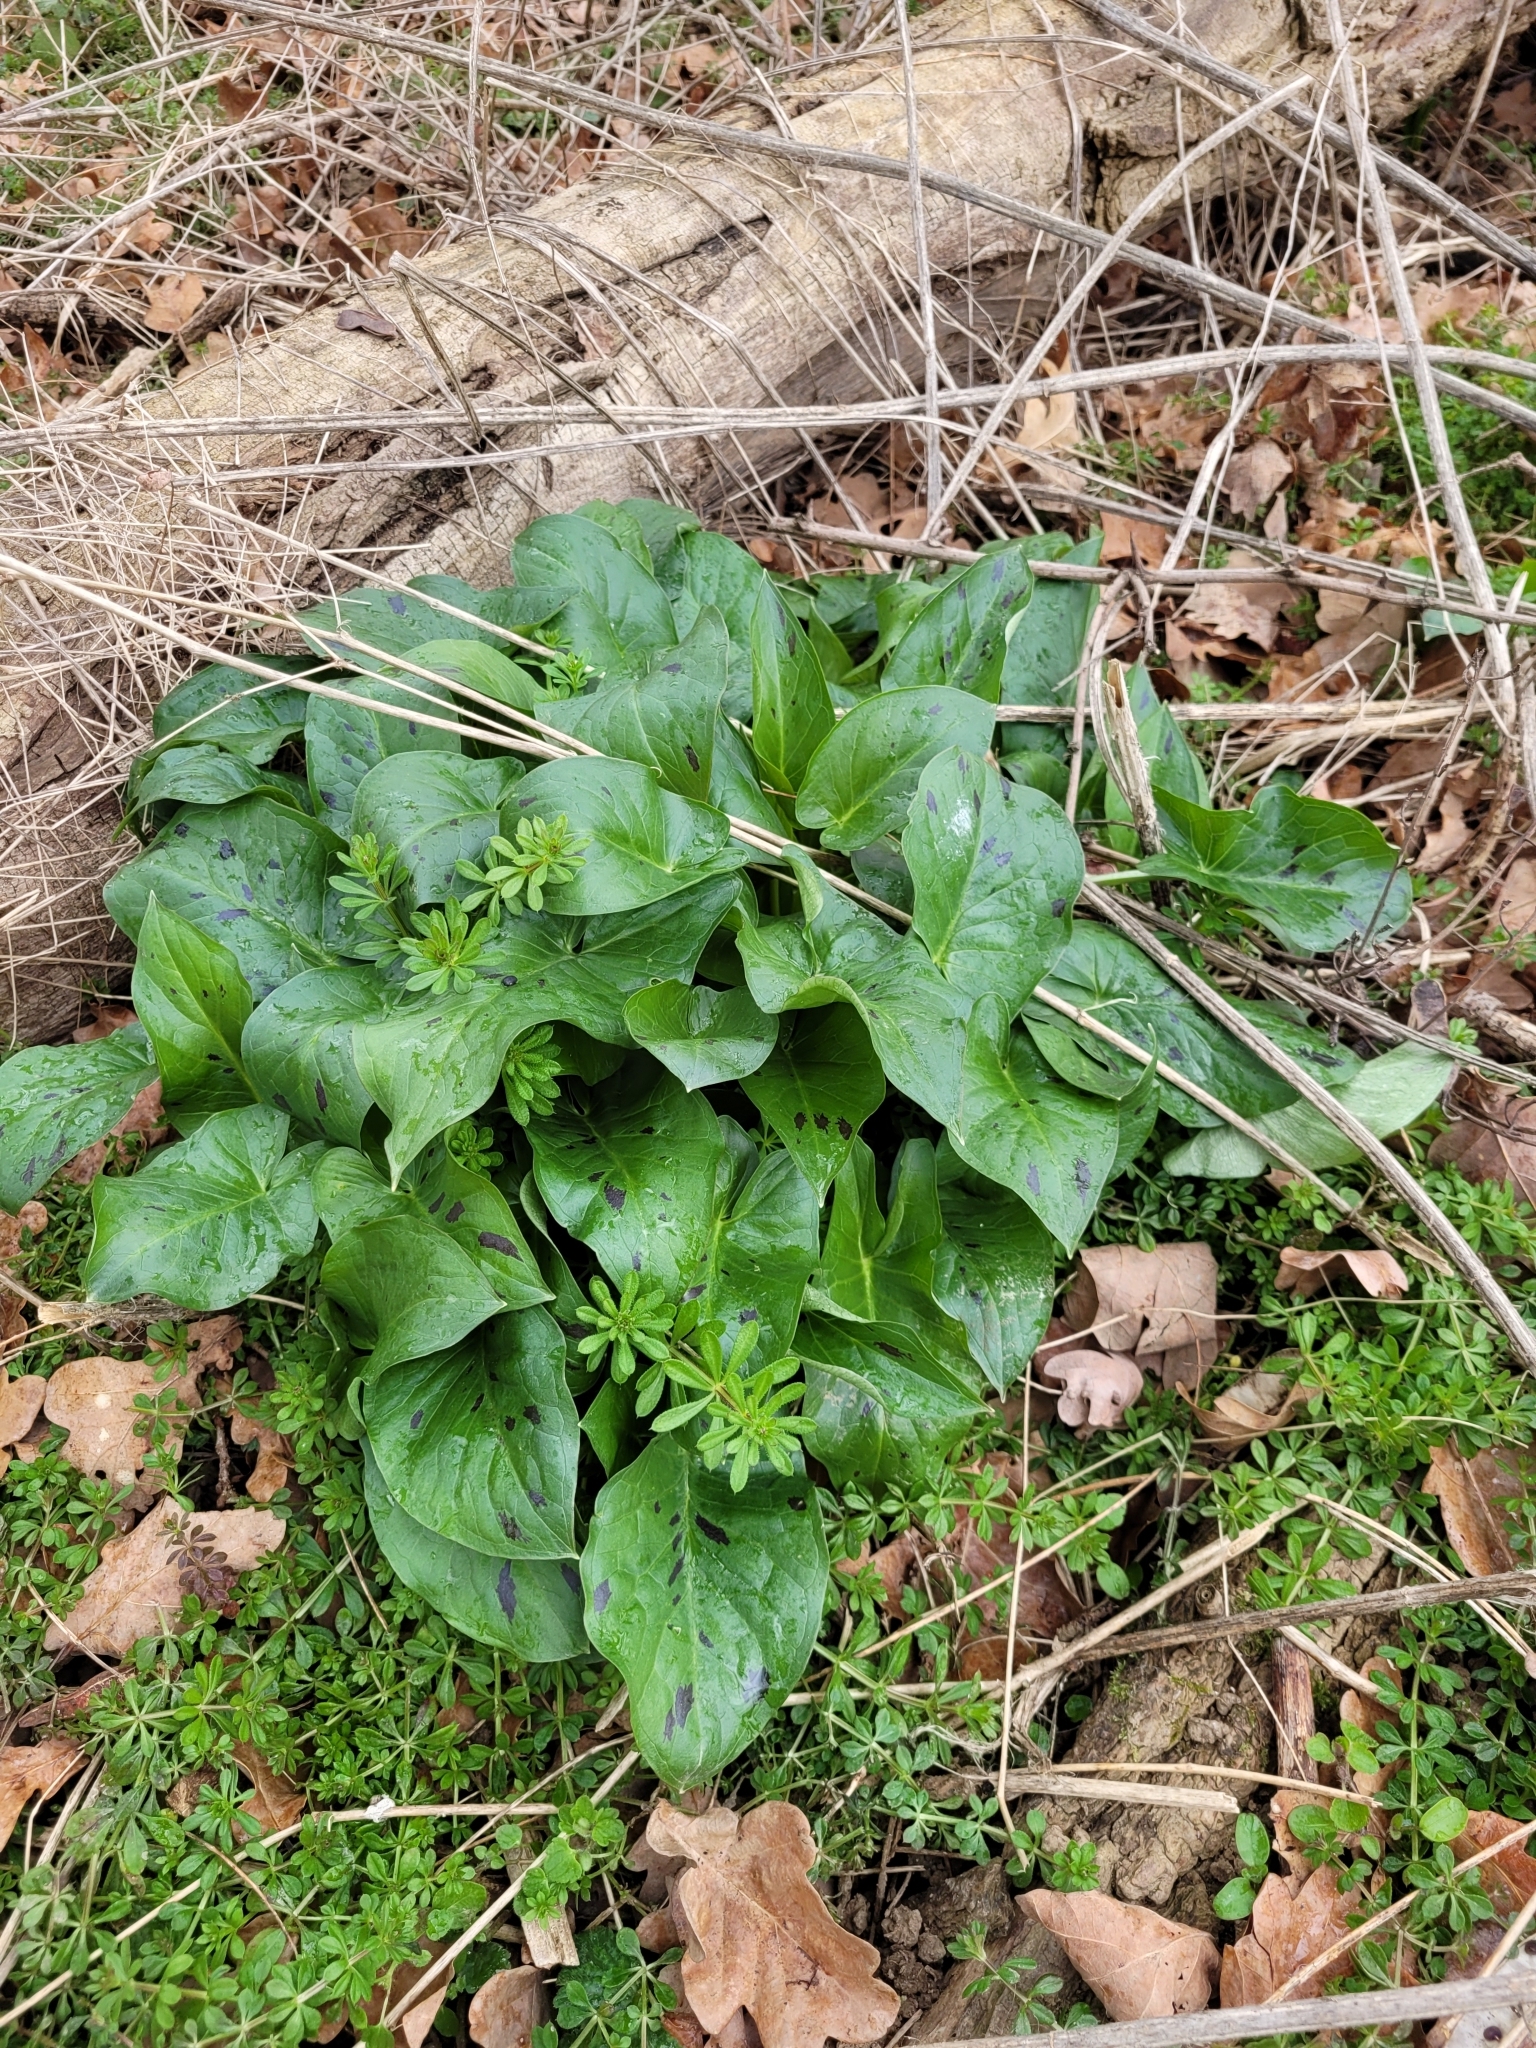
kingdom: Plantae
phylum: Tracheophyta
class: Liliopsida
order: Alismatales
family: Araceae
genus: Arum
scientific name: Arum maculatum
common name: Lords-and-ladies
